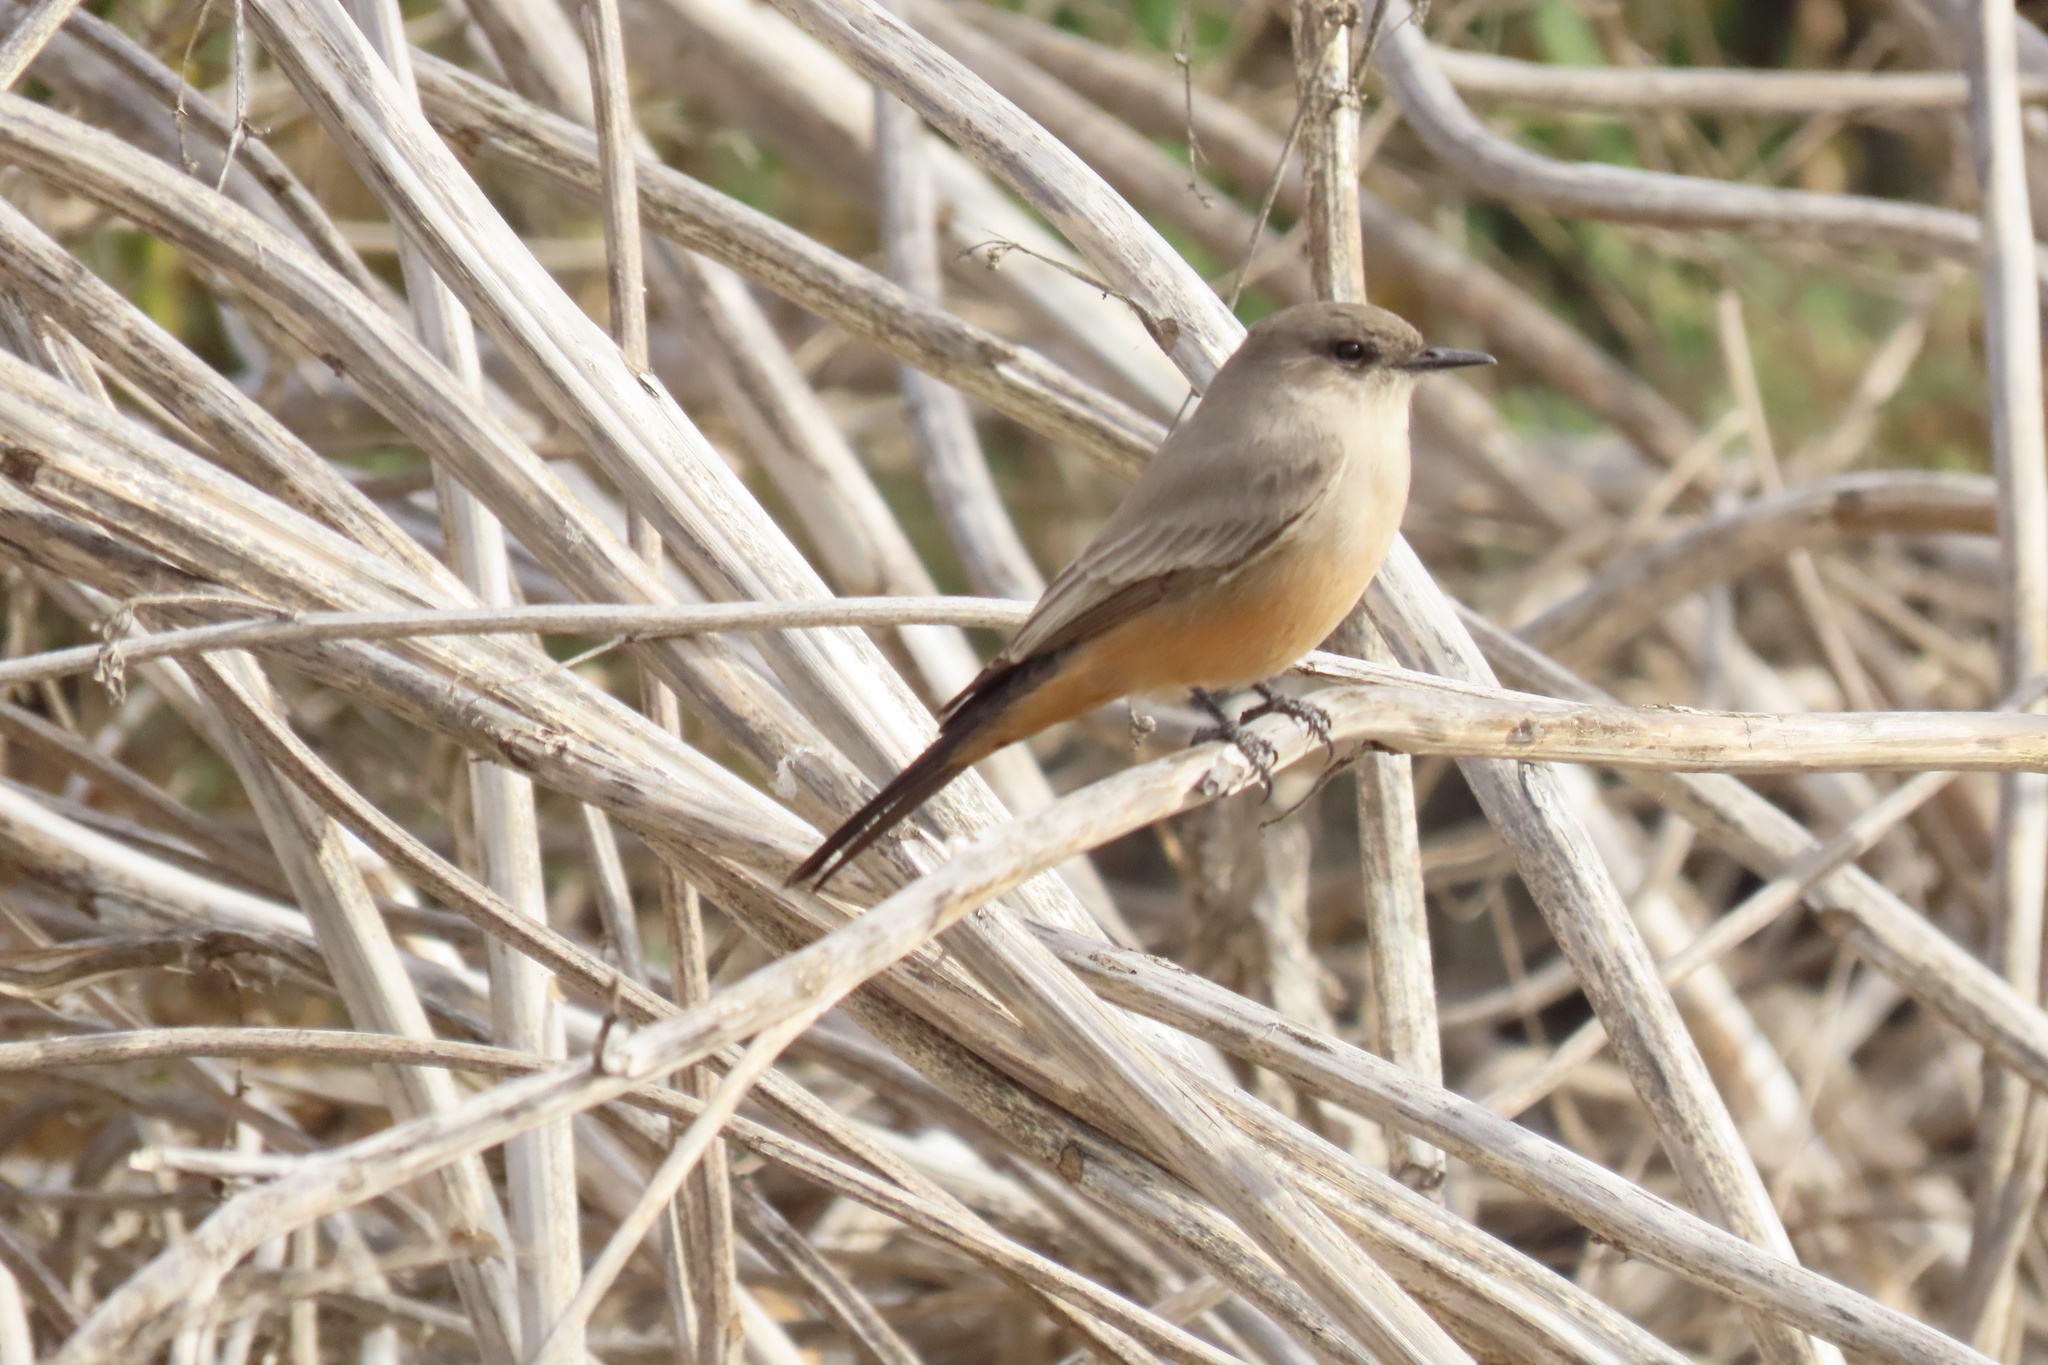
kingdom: Animalia
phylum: Chordata
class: Aves
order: Passeriformes
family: Tyrannidae
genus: Sayornis
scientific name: Sayornis saya
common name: Say's phoebe
